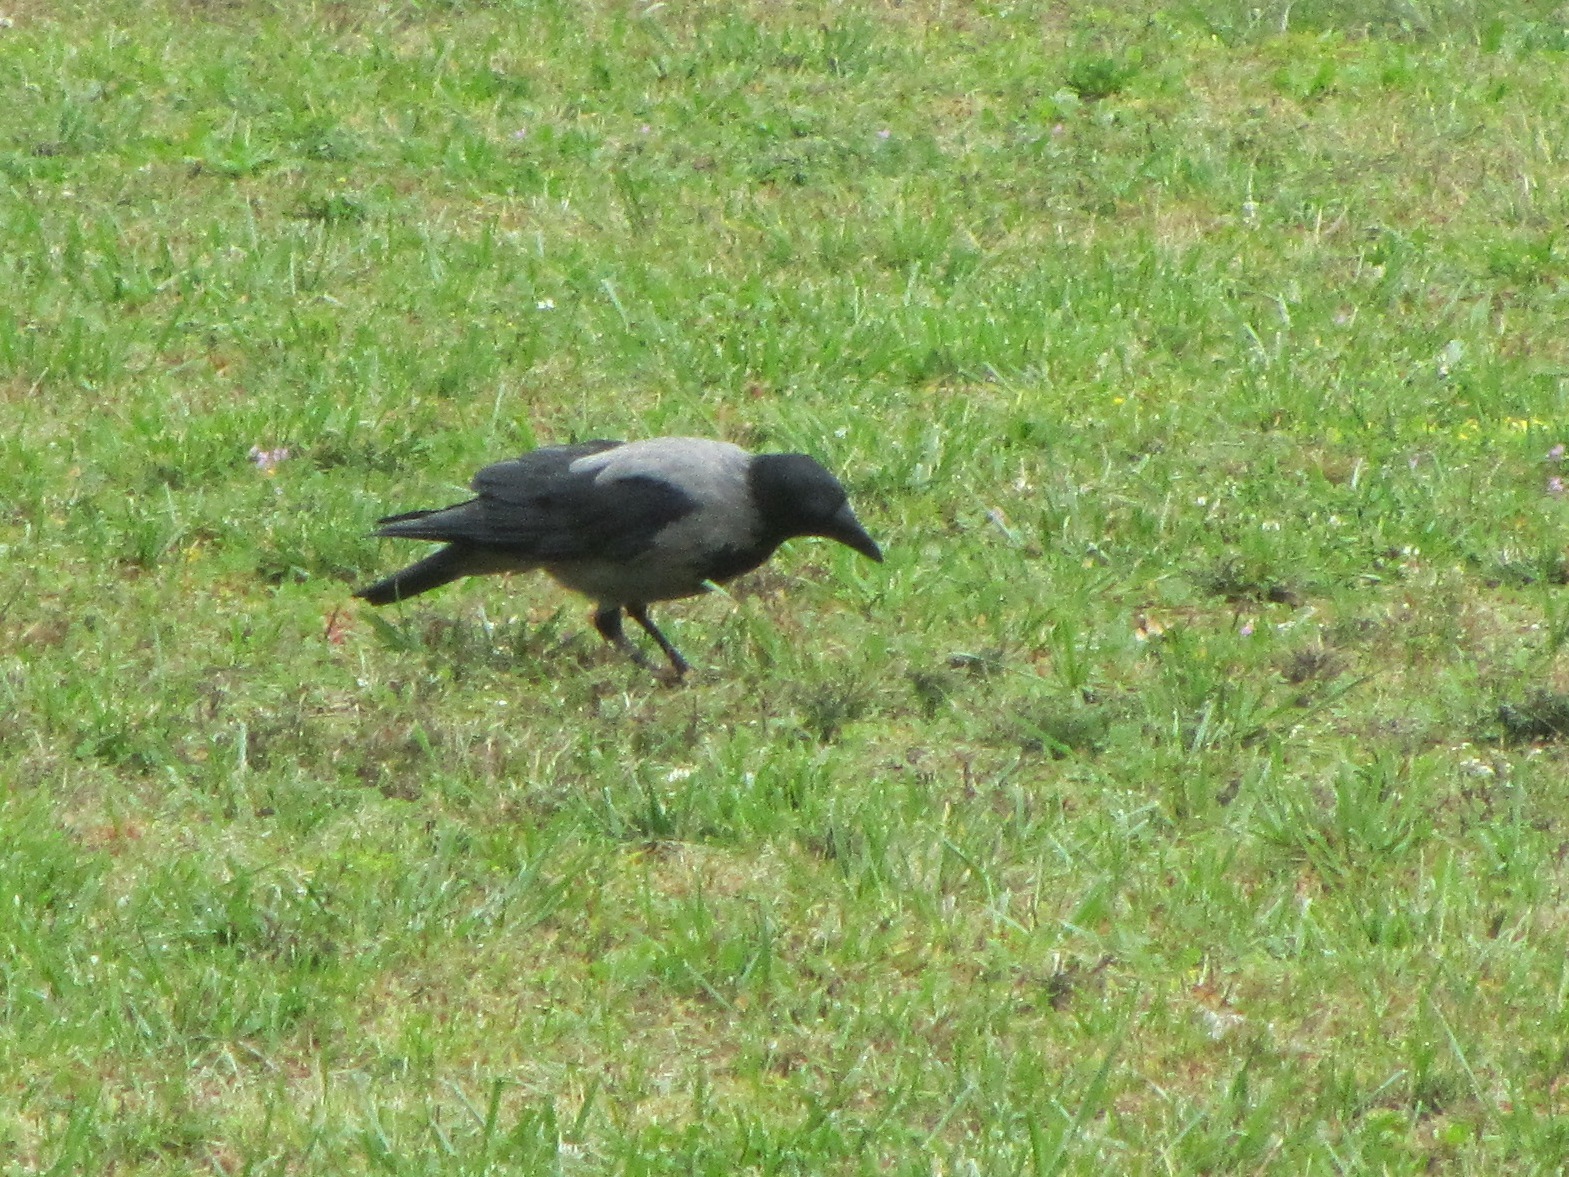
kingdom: Animalia
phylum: Chordata
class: Aves
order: Passeriformes
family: Corvidae
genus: Corvus
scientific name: Corvus cornix
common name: Hooded crow
